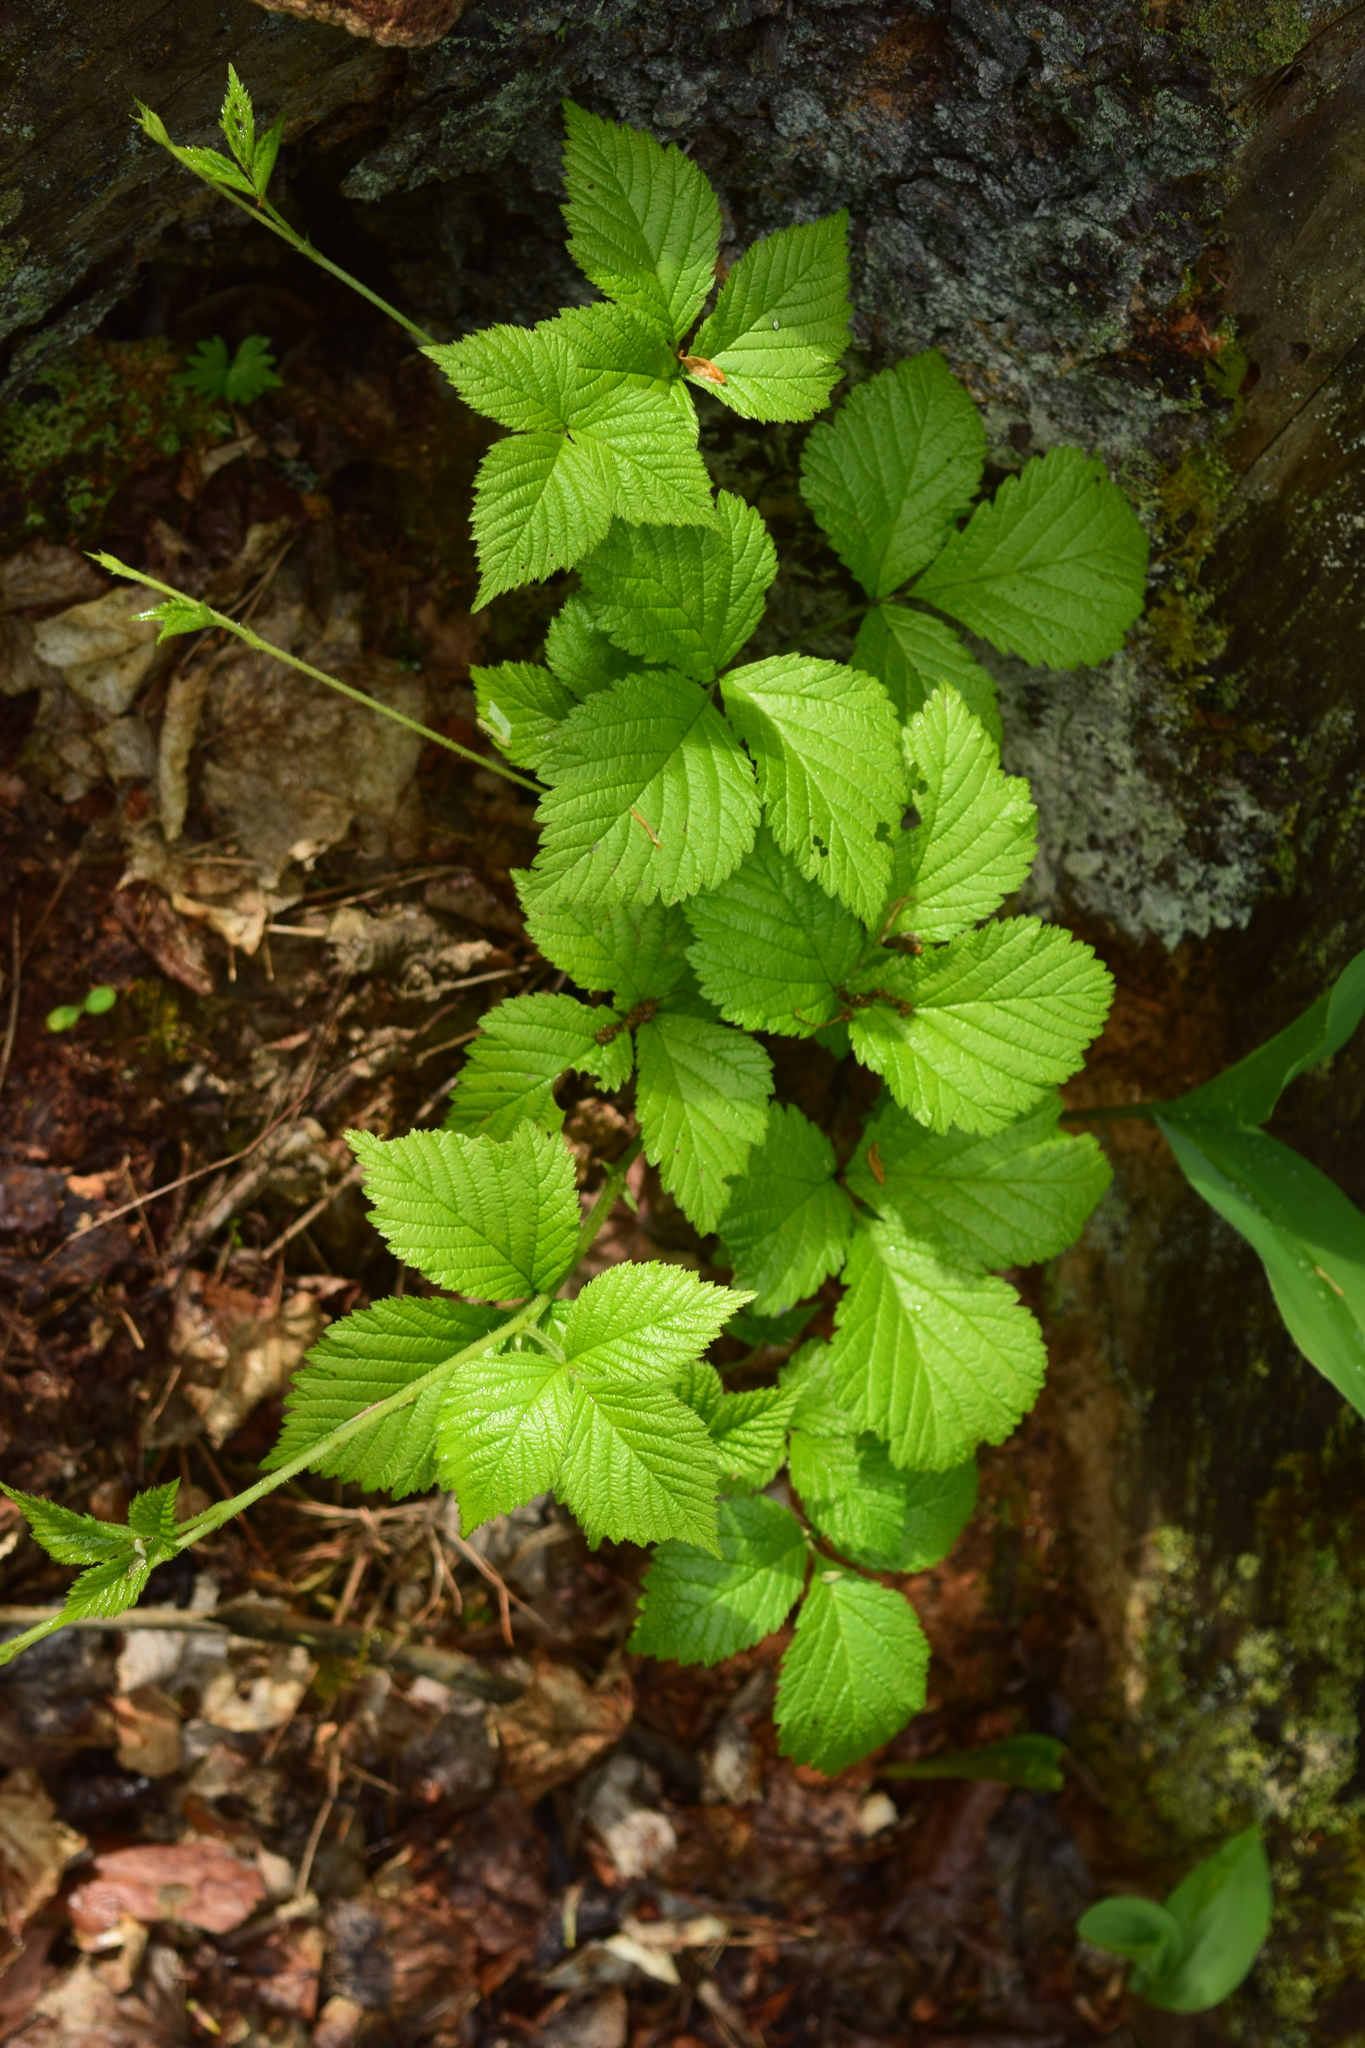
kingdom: Plantae
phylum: Tracheophyta
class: Magnoliopsida
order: Rosales
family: Rosaceae
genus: Rubus
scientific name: Rubus saxatilis
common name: Stone bramble
